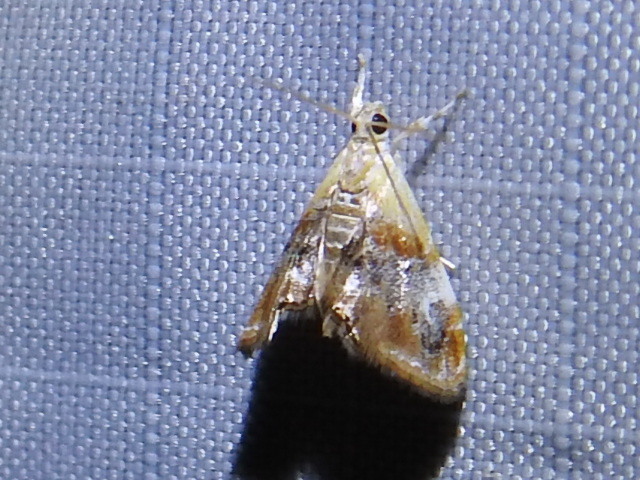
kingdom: Animalia
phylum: Arthropoda
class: Insecta
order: Lepidoptera
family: Crambidae
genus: Dicymolomia
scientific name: Dicymolomia julianalis
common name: Julia's dicymolomia moth
